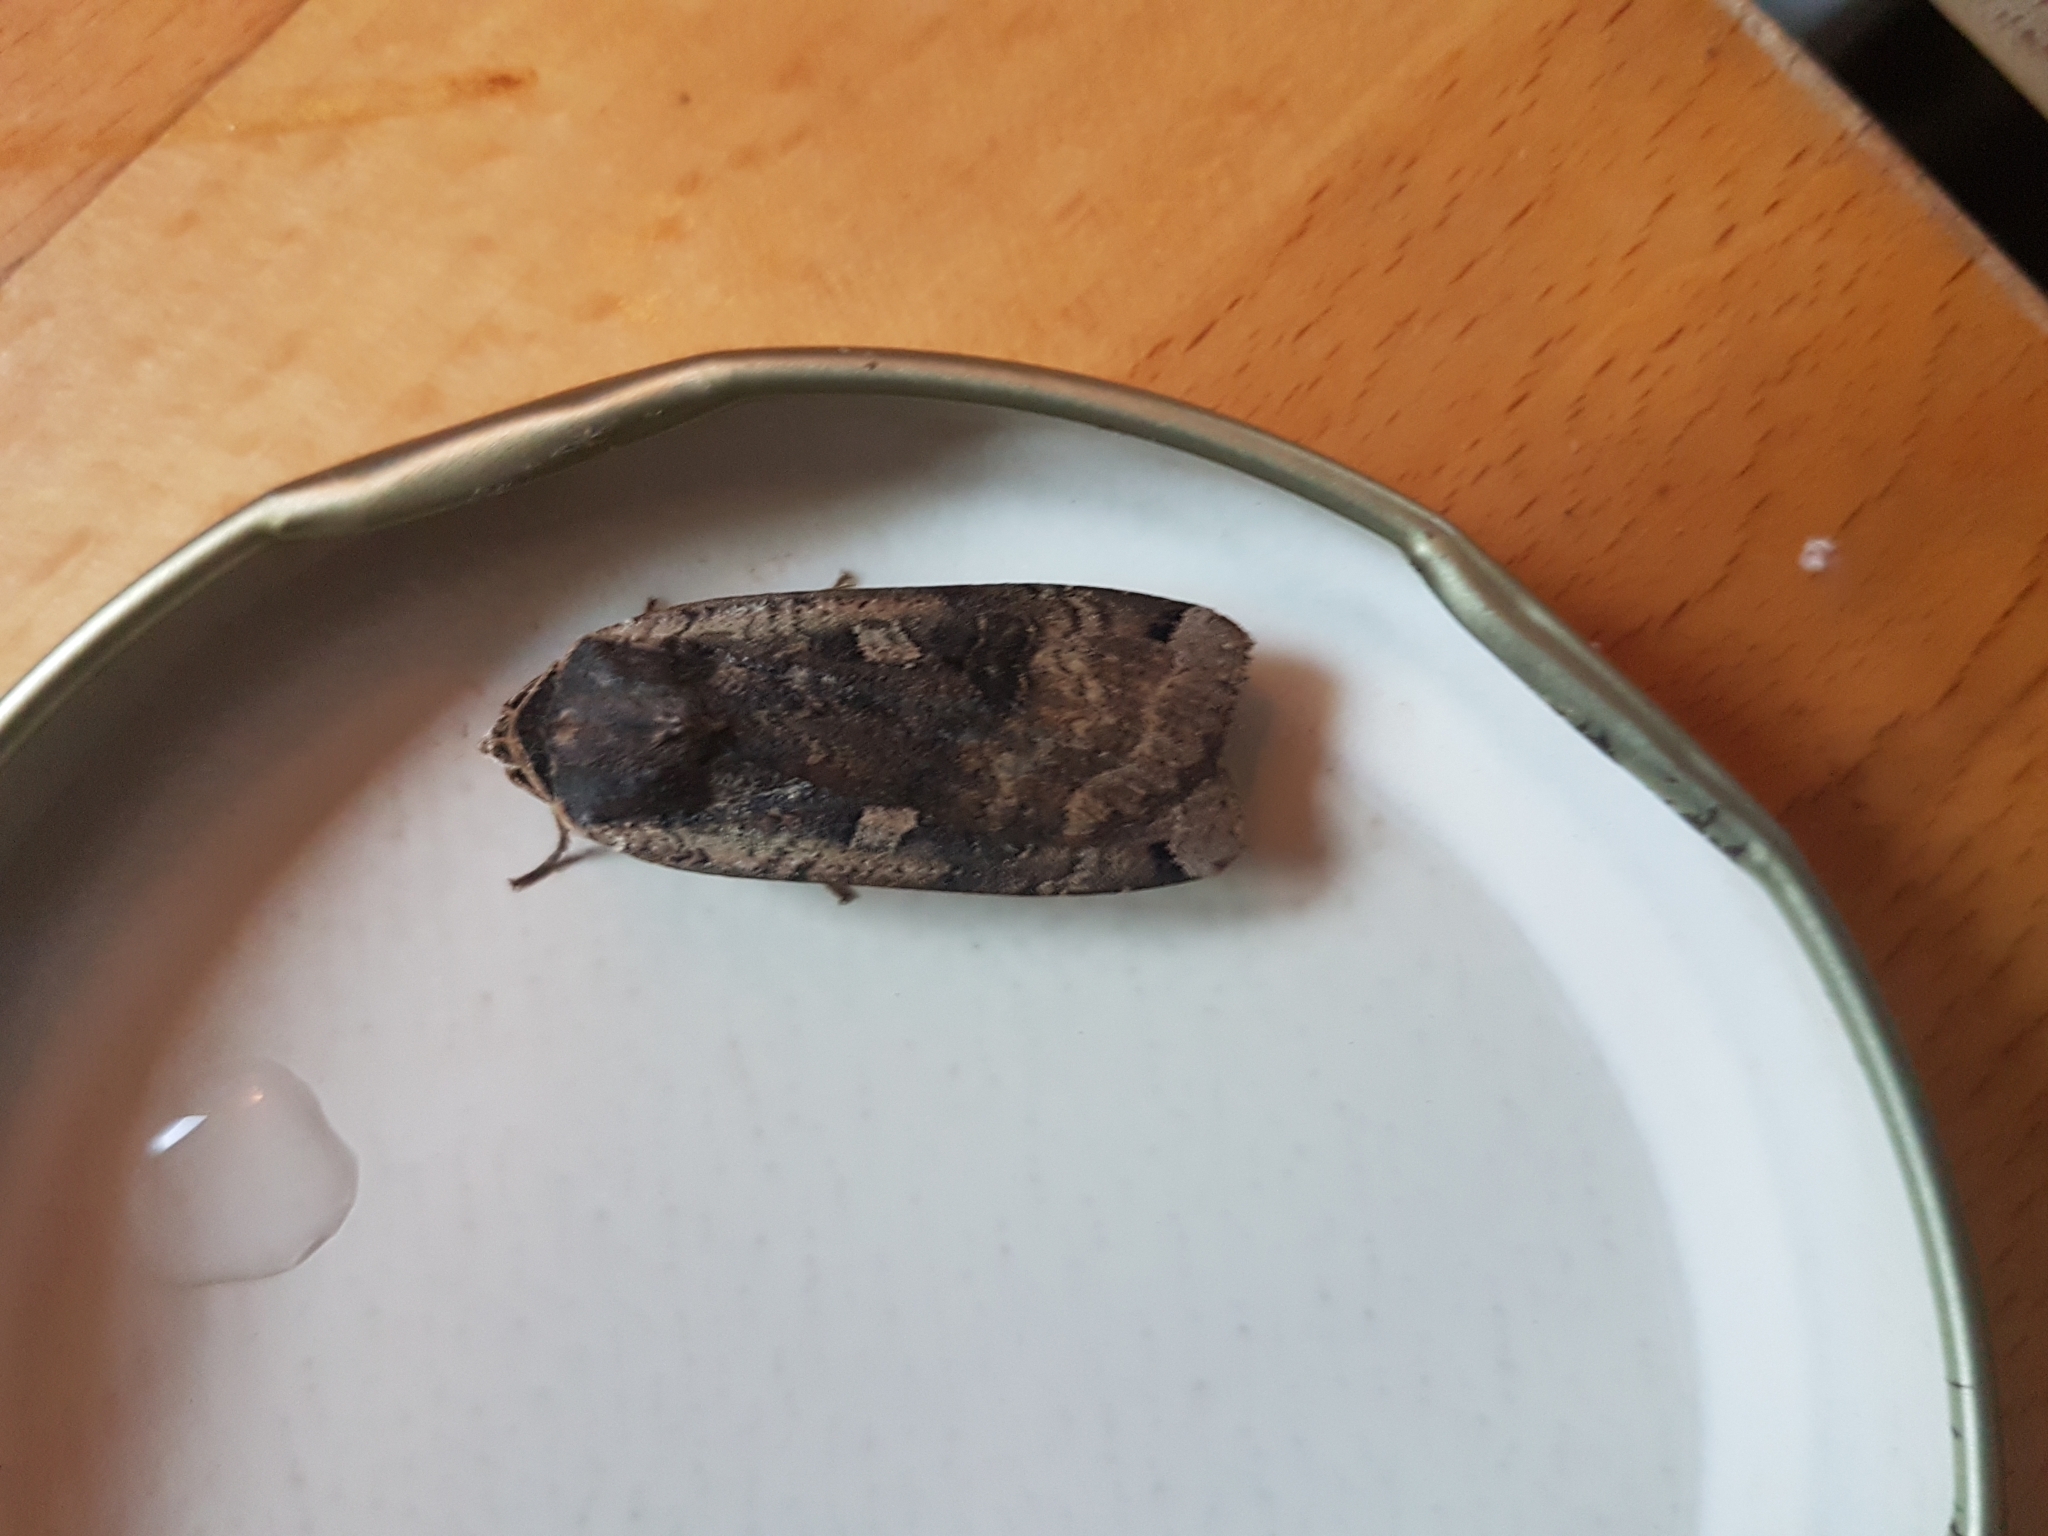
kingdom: Animalia
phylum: Arthropoda
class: Insecta
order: Lepidoptera
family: Noctuidae
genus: Noctua
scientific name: Noctua pronuba
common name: Large yellow underwing
